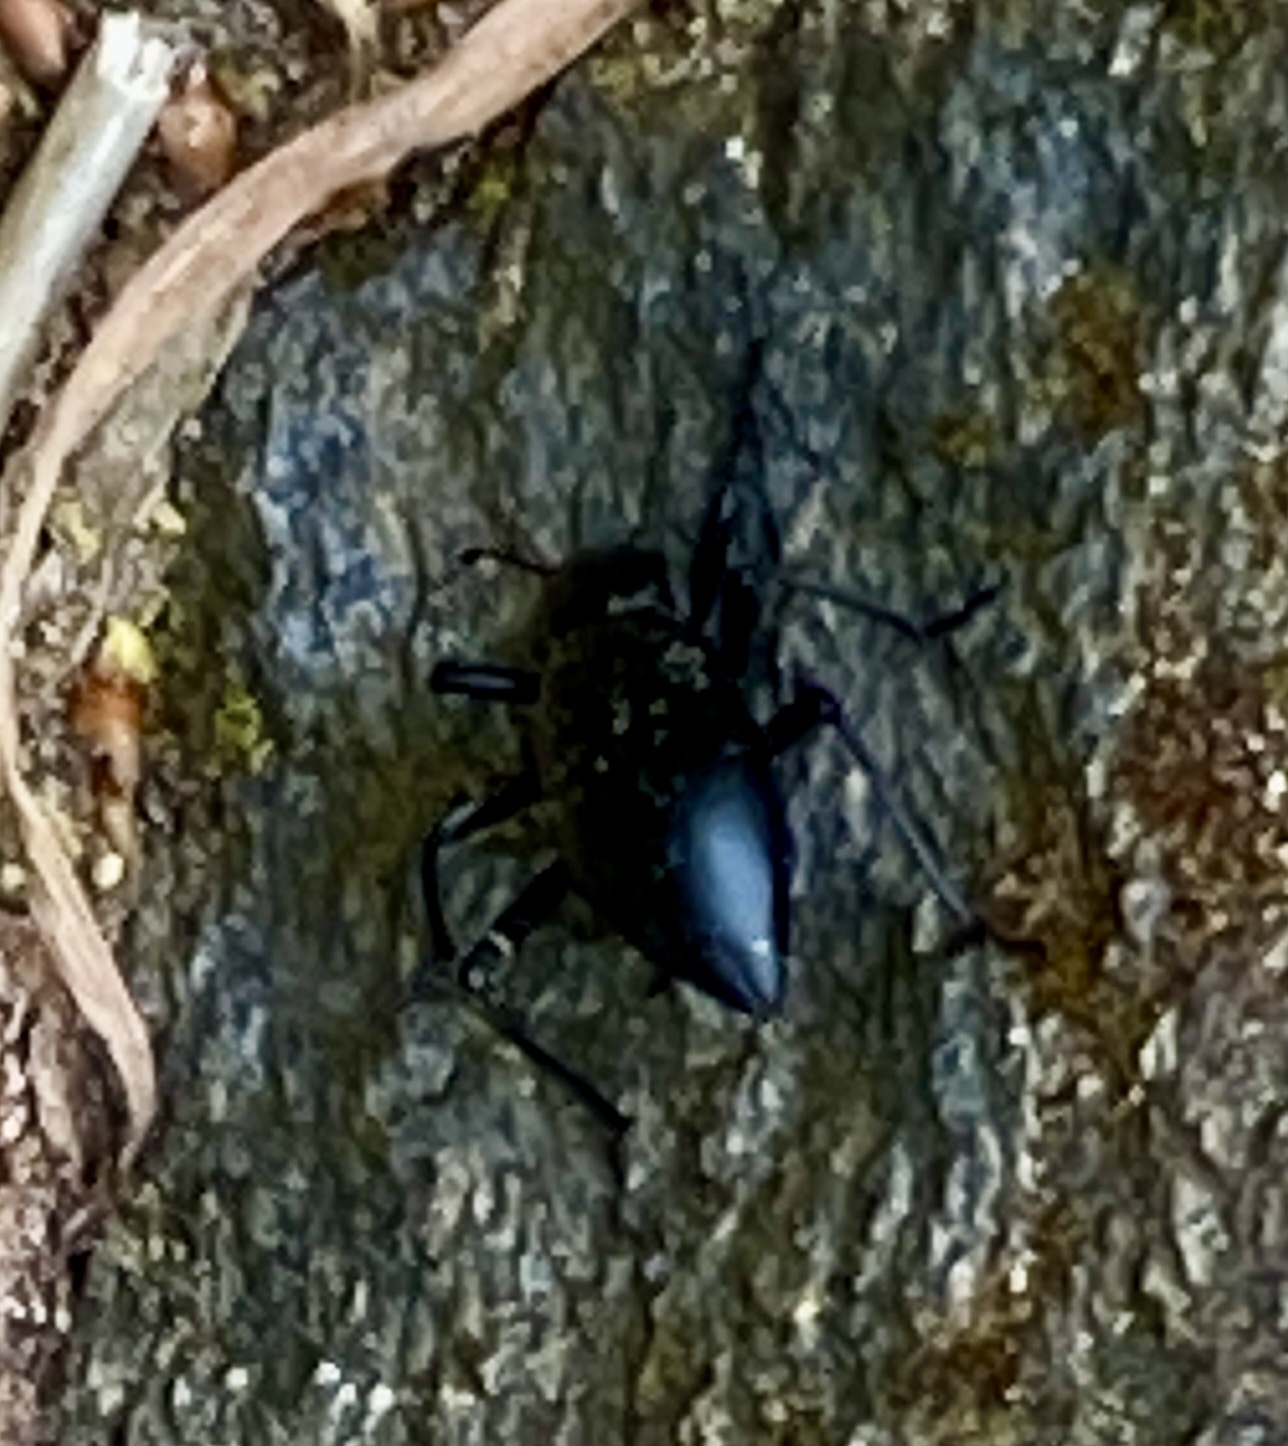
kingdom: Animalia
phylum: Arthropoda
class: Insecta
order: Coleoptera
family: Tenebrionidae
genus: Eleodes
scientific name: Eleodes dentipes
